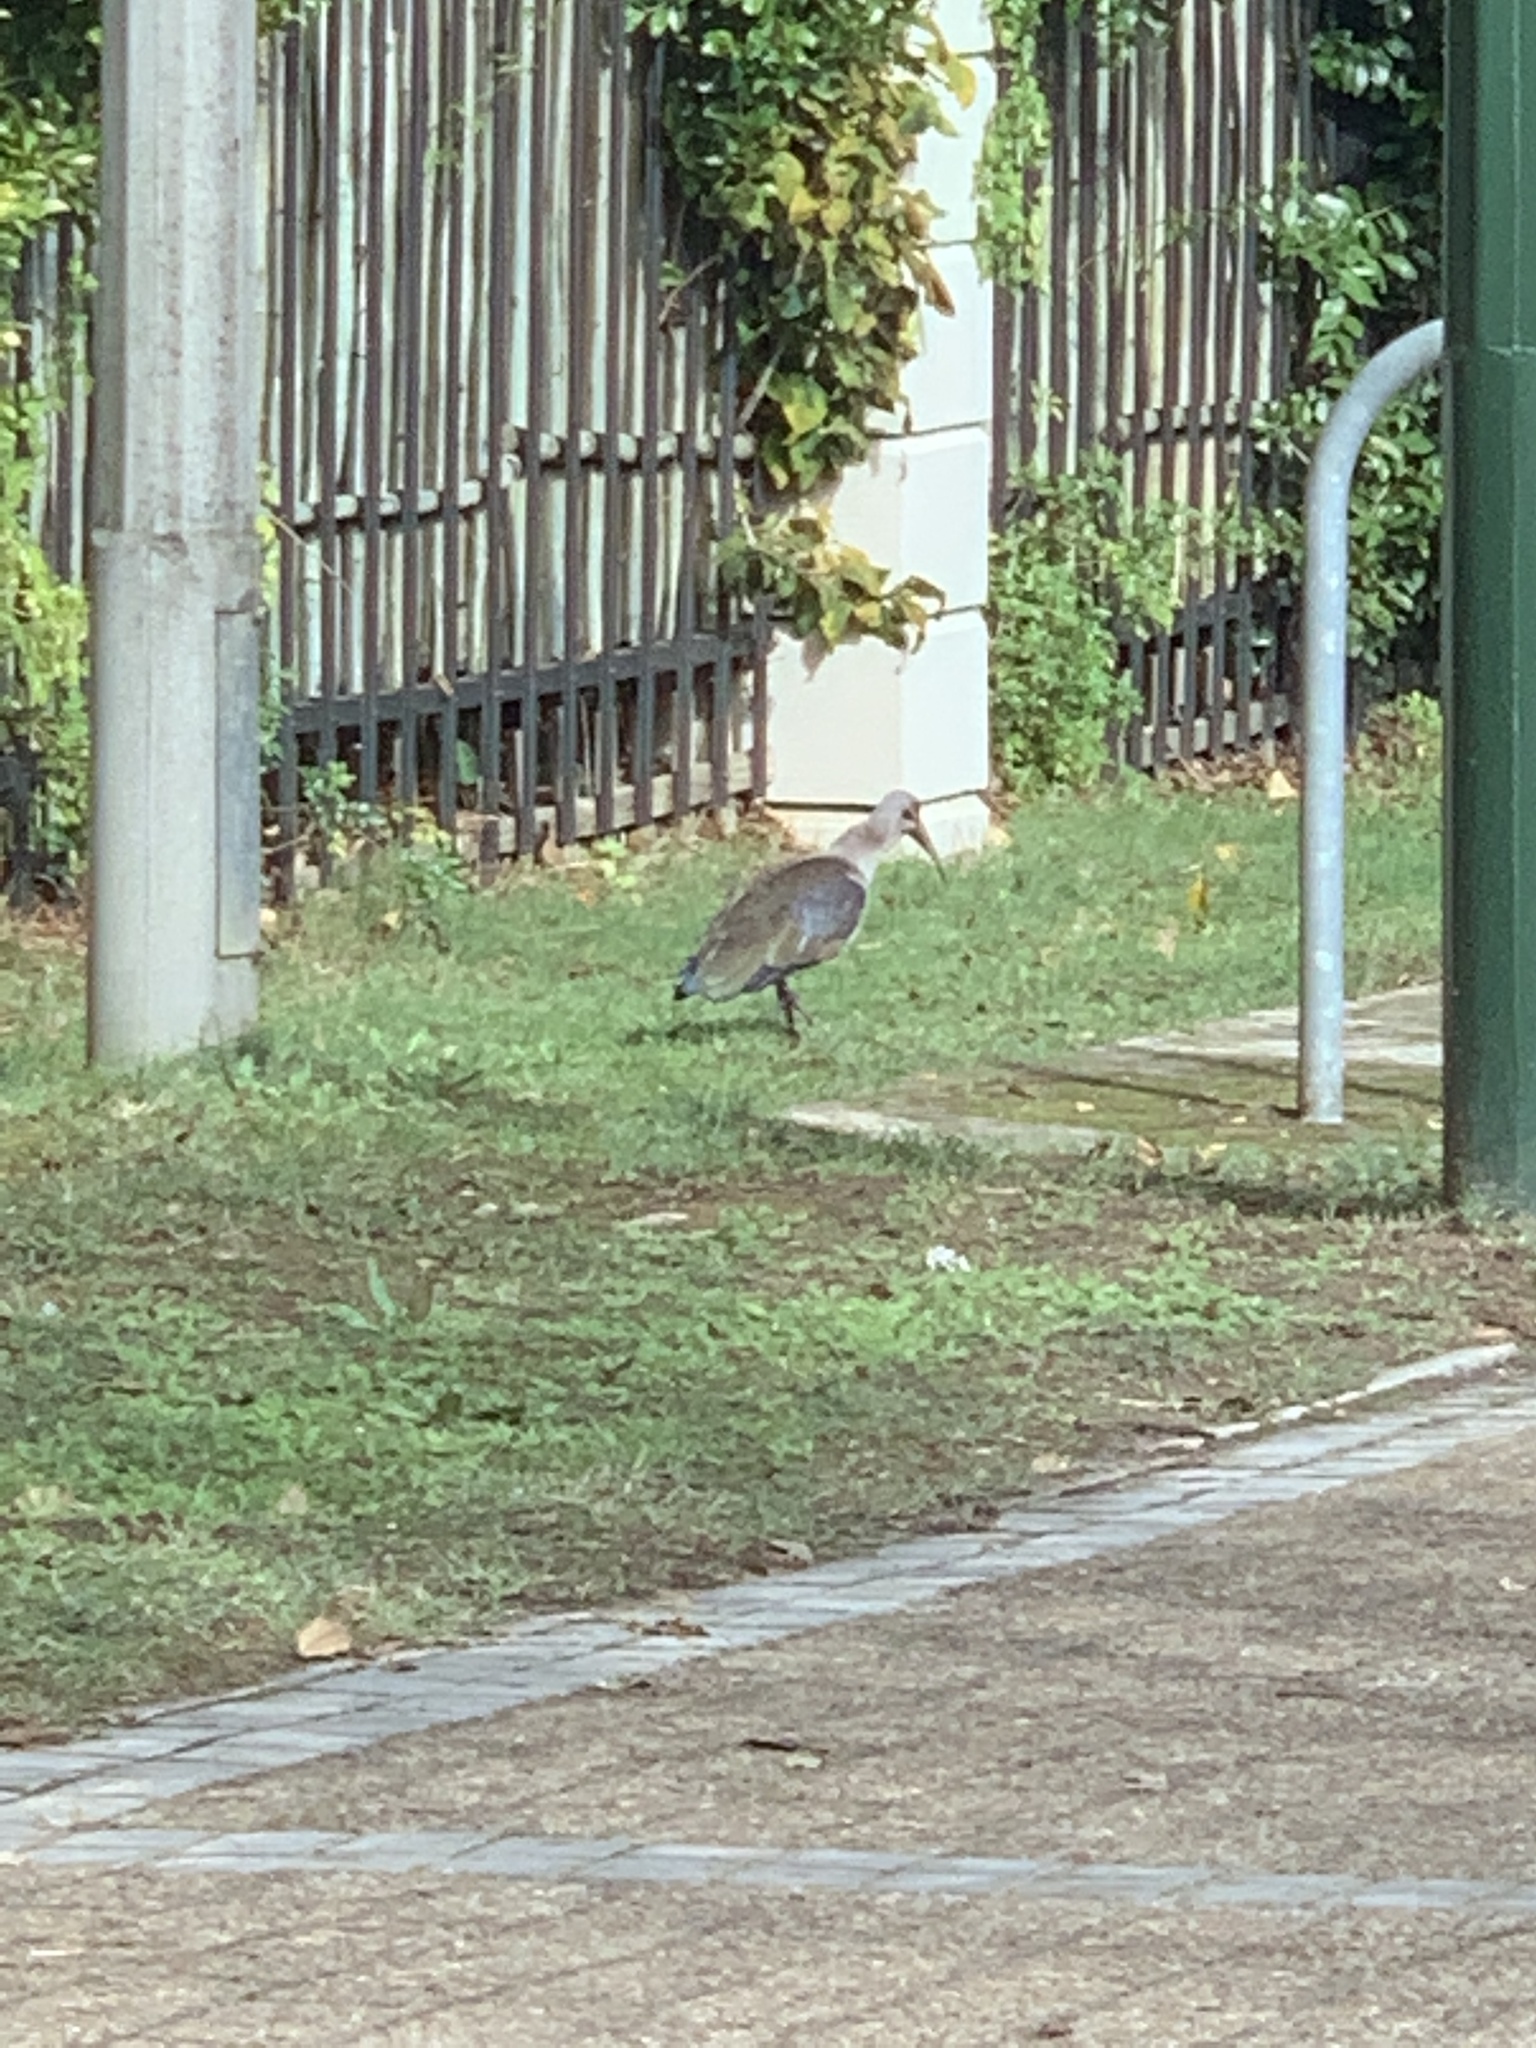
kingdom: Animalia
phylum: Chordata
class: Aves
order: Pelecaniformes
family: Threskiornithidae
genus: Bostrychia
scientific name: Bostrychia hagedash
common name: Hadada ibis
